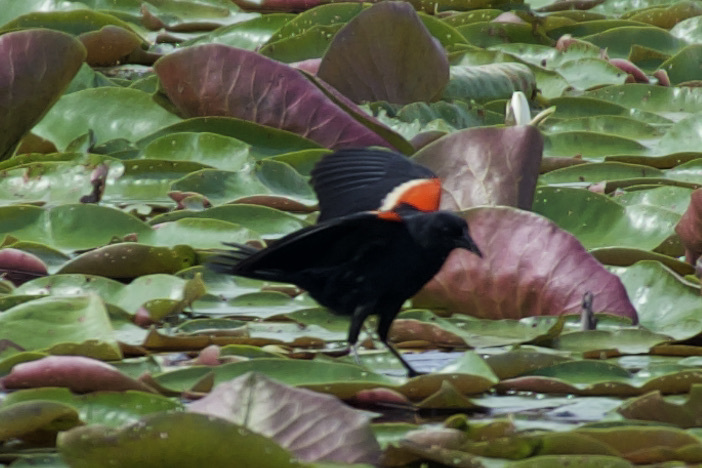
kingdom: Animalia
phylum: Chordata
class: Aves
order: Passeriformes
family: Icteridae
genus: Agelaius
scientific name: Agelaius phoeniceus
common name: Red-winged blackbird
